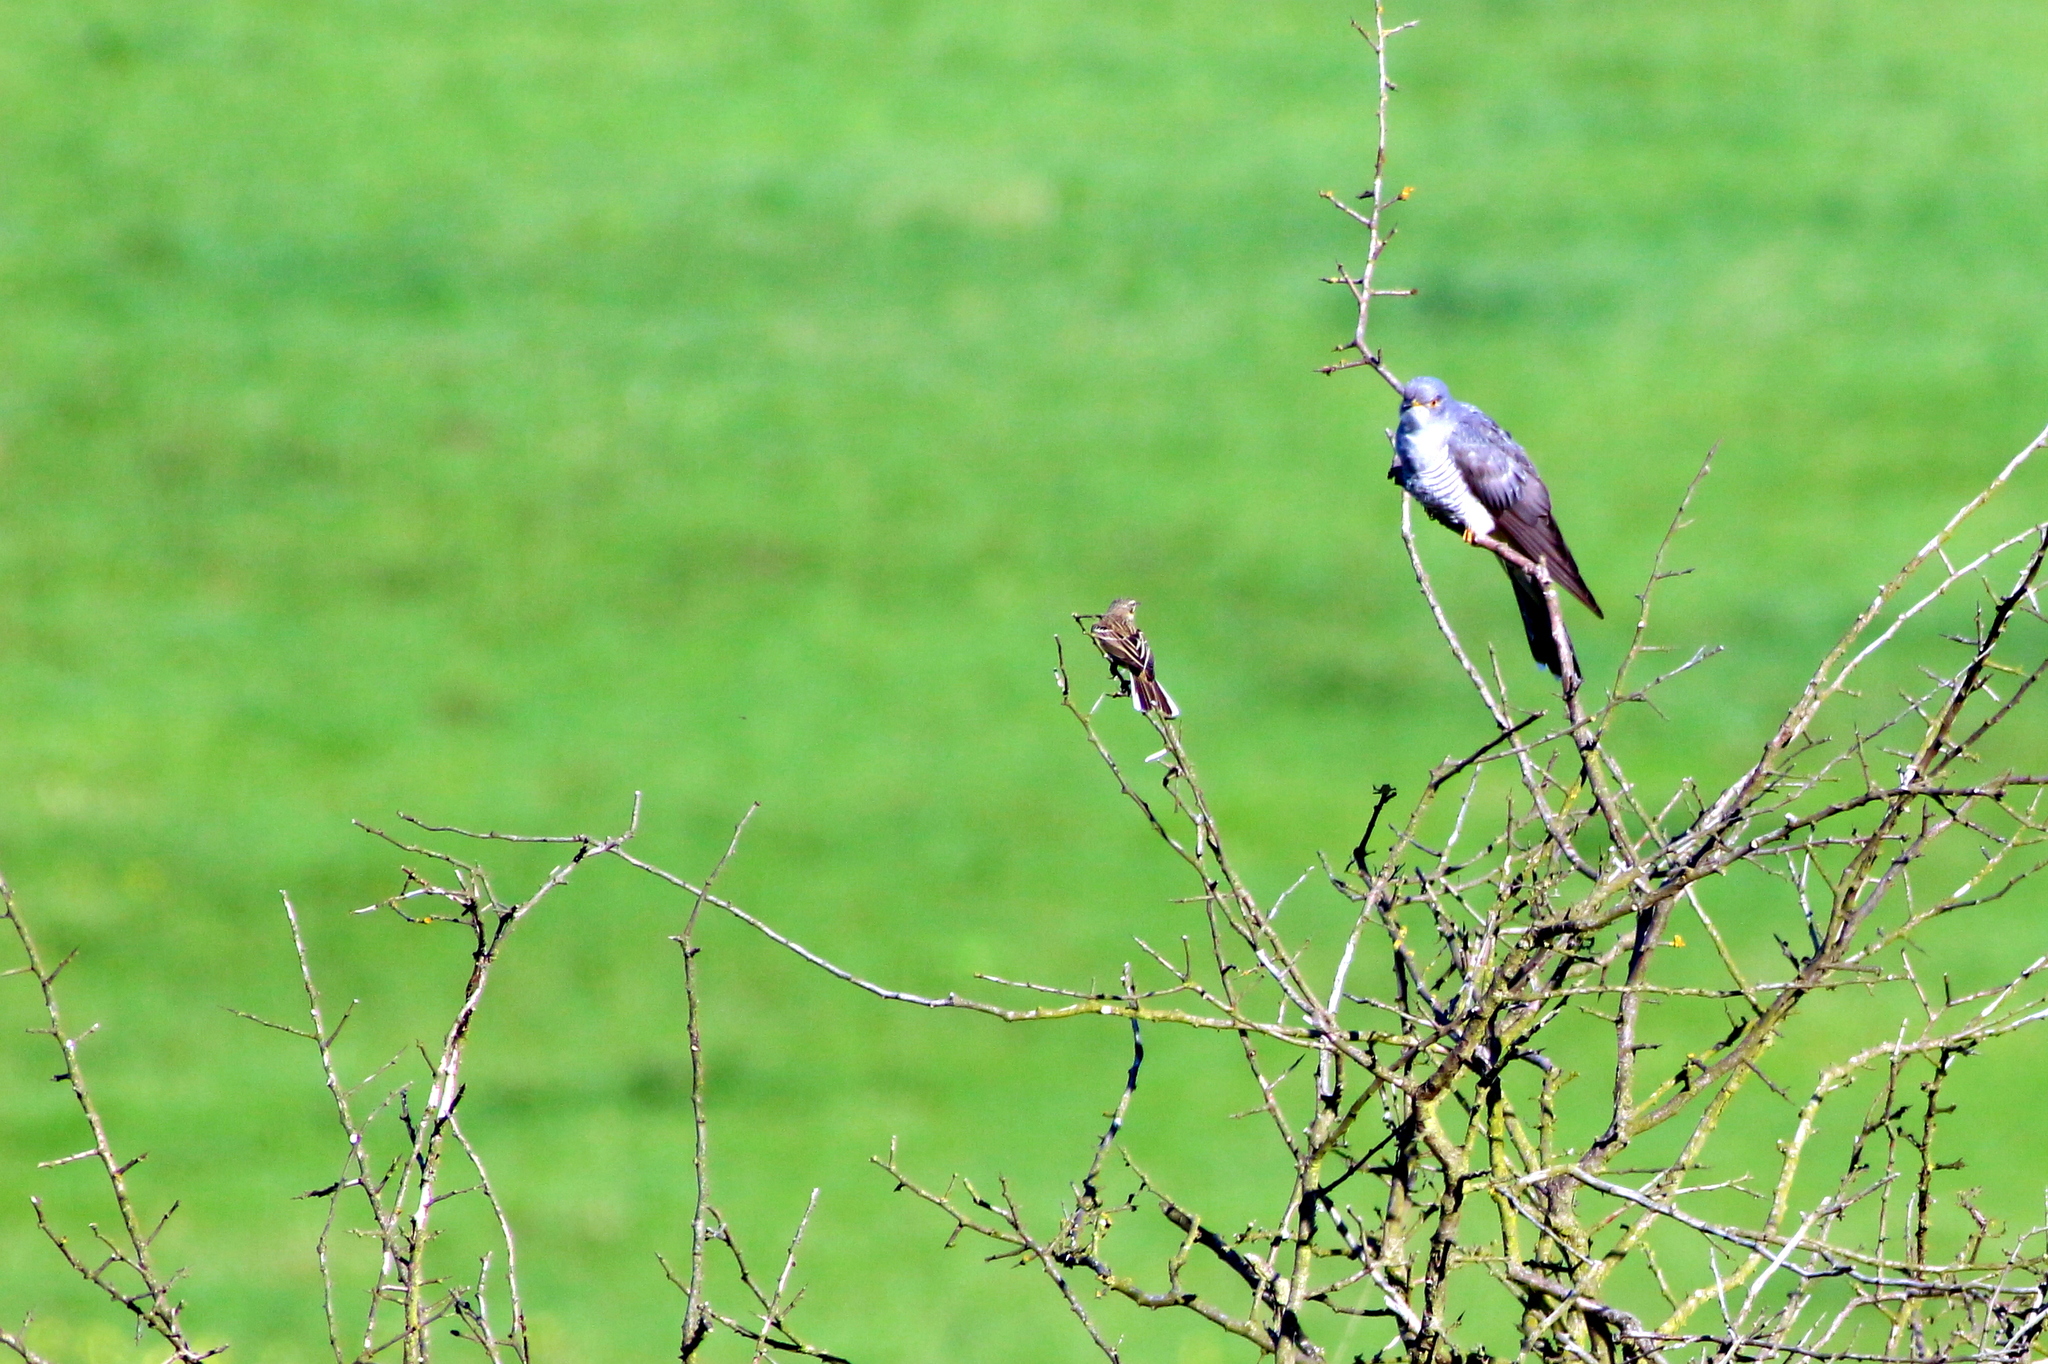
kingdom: Animalia
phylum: Chordata
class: Aves
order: Cuculiformes
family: Cuculidae
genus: Cuculus
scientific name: Cuculus canorus
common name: Common cuckoo
